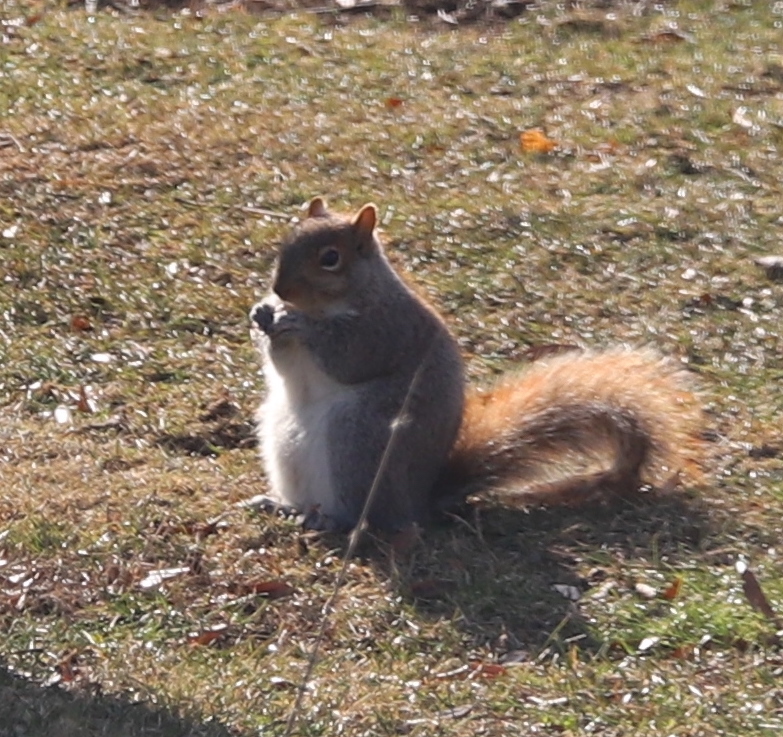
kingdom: Animalia
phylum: Chordata
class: Mammalia
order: Rodentia
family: Sciuridae
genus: Sciurus
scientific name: Sciurus carolinensis
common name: Eastern gray squirrel
